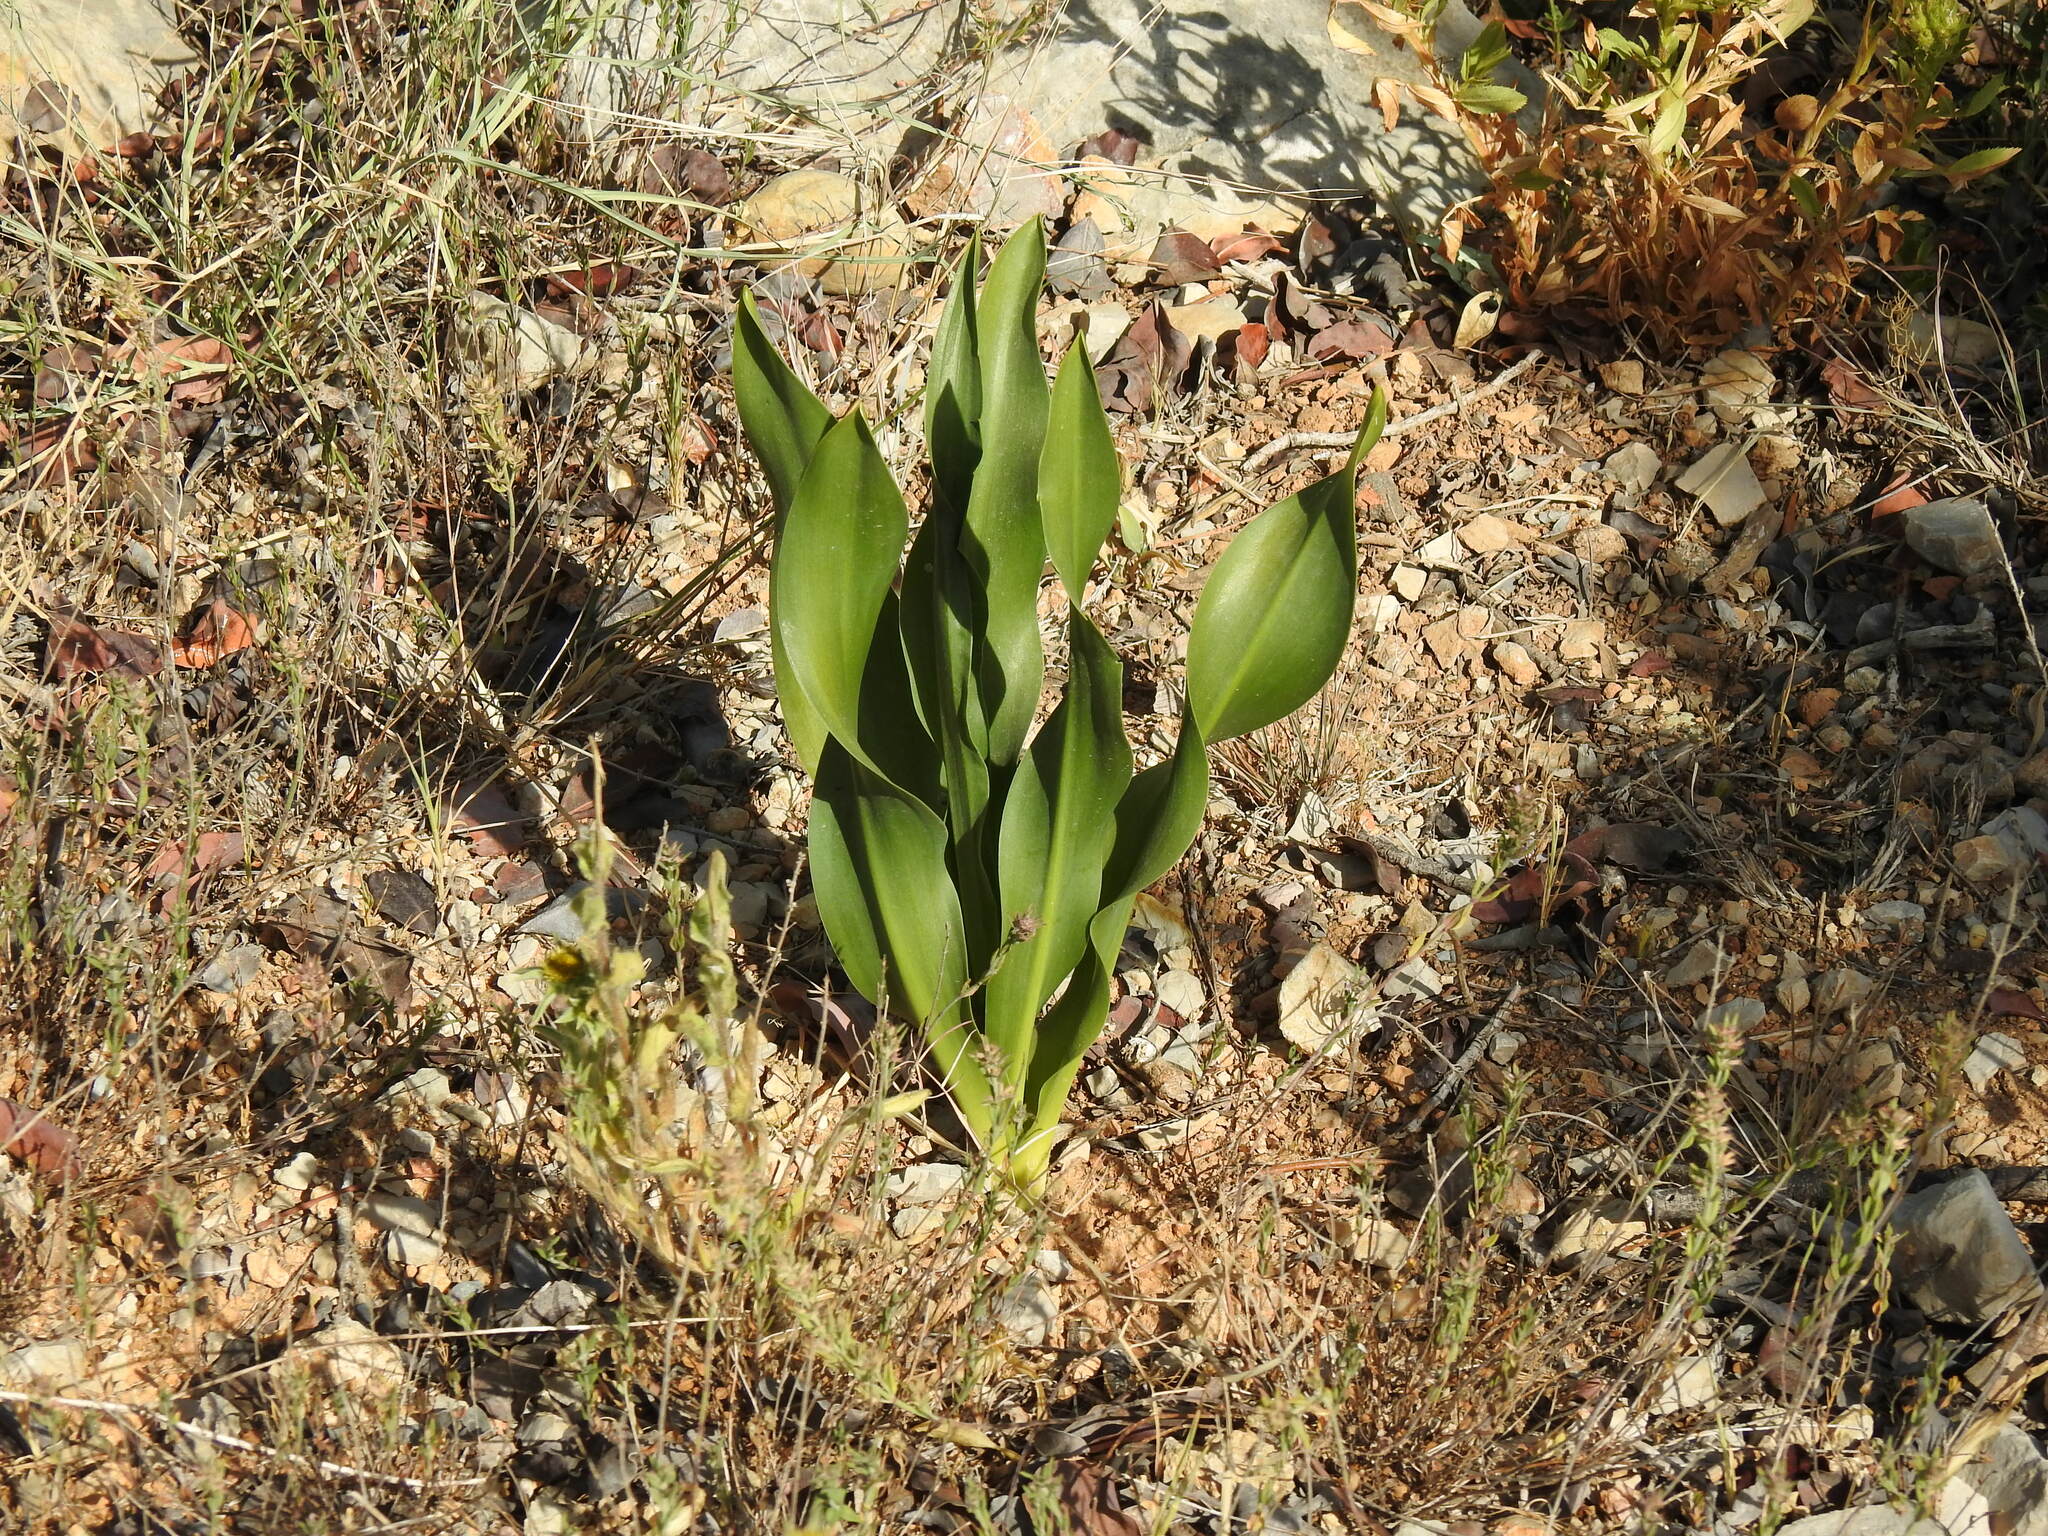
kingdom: Plantae
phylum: Tracheophyta
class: Liliopsida
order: Asparagales
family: Asparagaceae
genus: Drimia
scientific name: Drimia maritima
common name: Maritime squill
